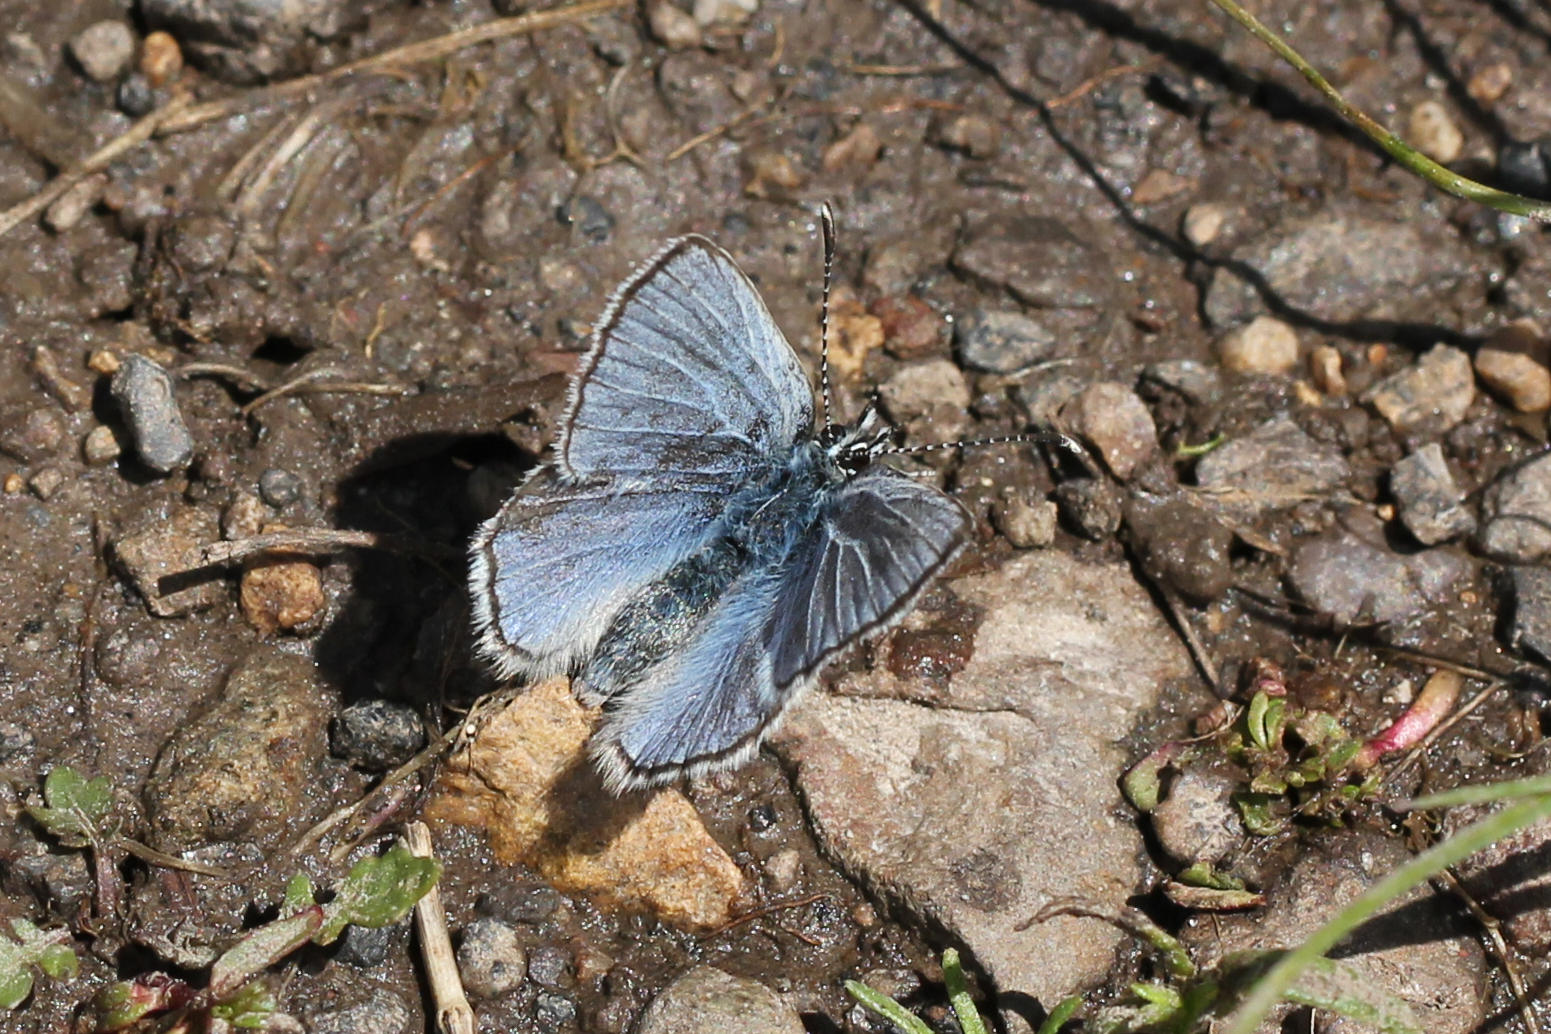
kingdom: Animalia
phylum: Arthropoda
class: Insecta
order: Lepidoptera
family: Lycaenidae
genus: Glaucopsyche
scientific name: Glaucopsyche lygdamus
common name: Silvery blue
